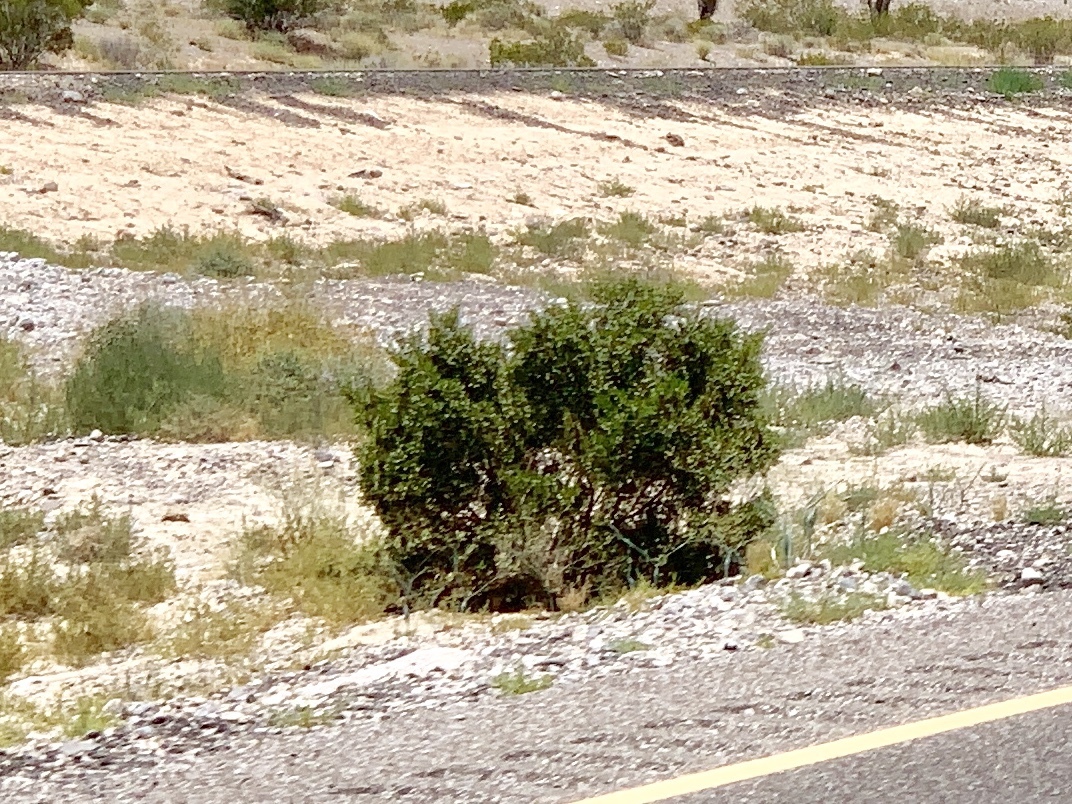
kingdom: Plantae
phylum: Tracheophyta
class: Magnoliopsida
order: Zygophyllales
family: Zygophyllaceae
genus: Larrea
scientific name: Larrea tridentata
